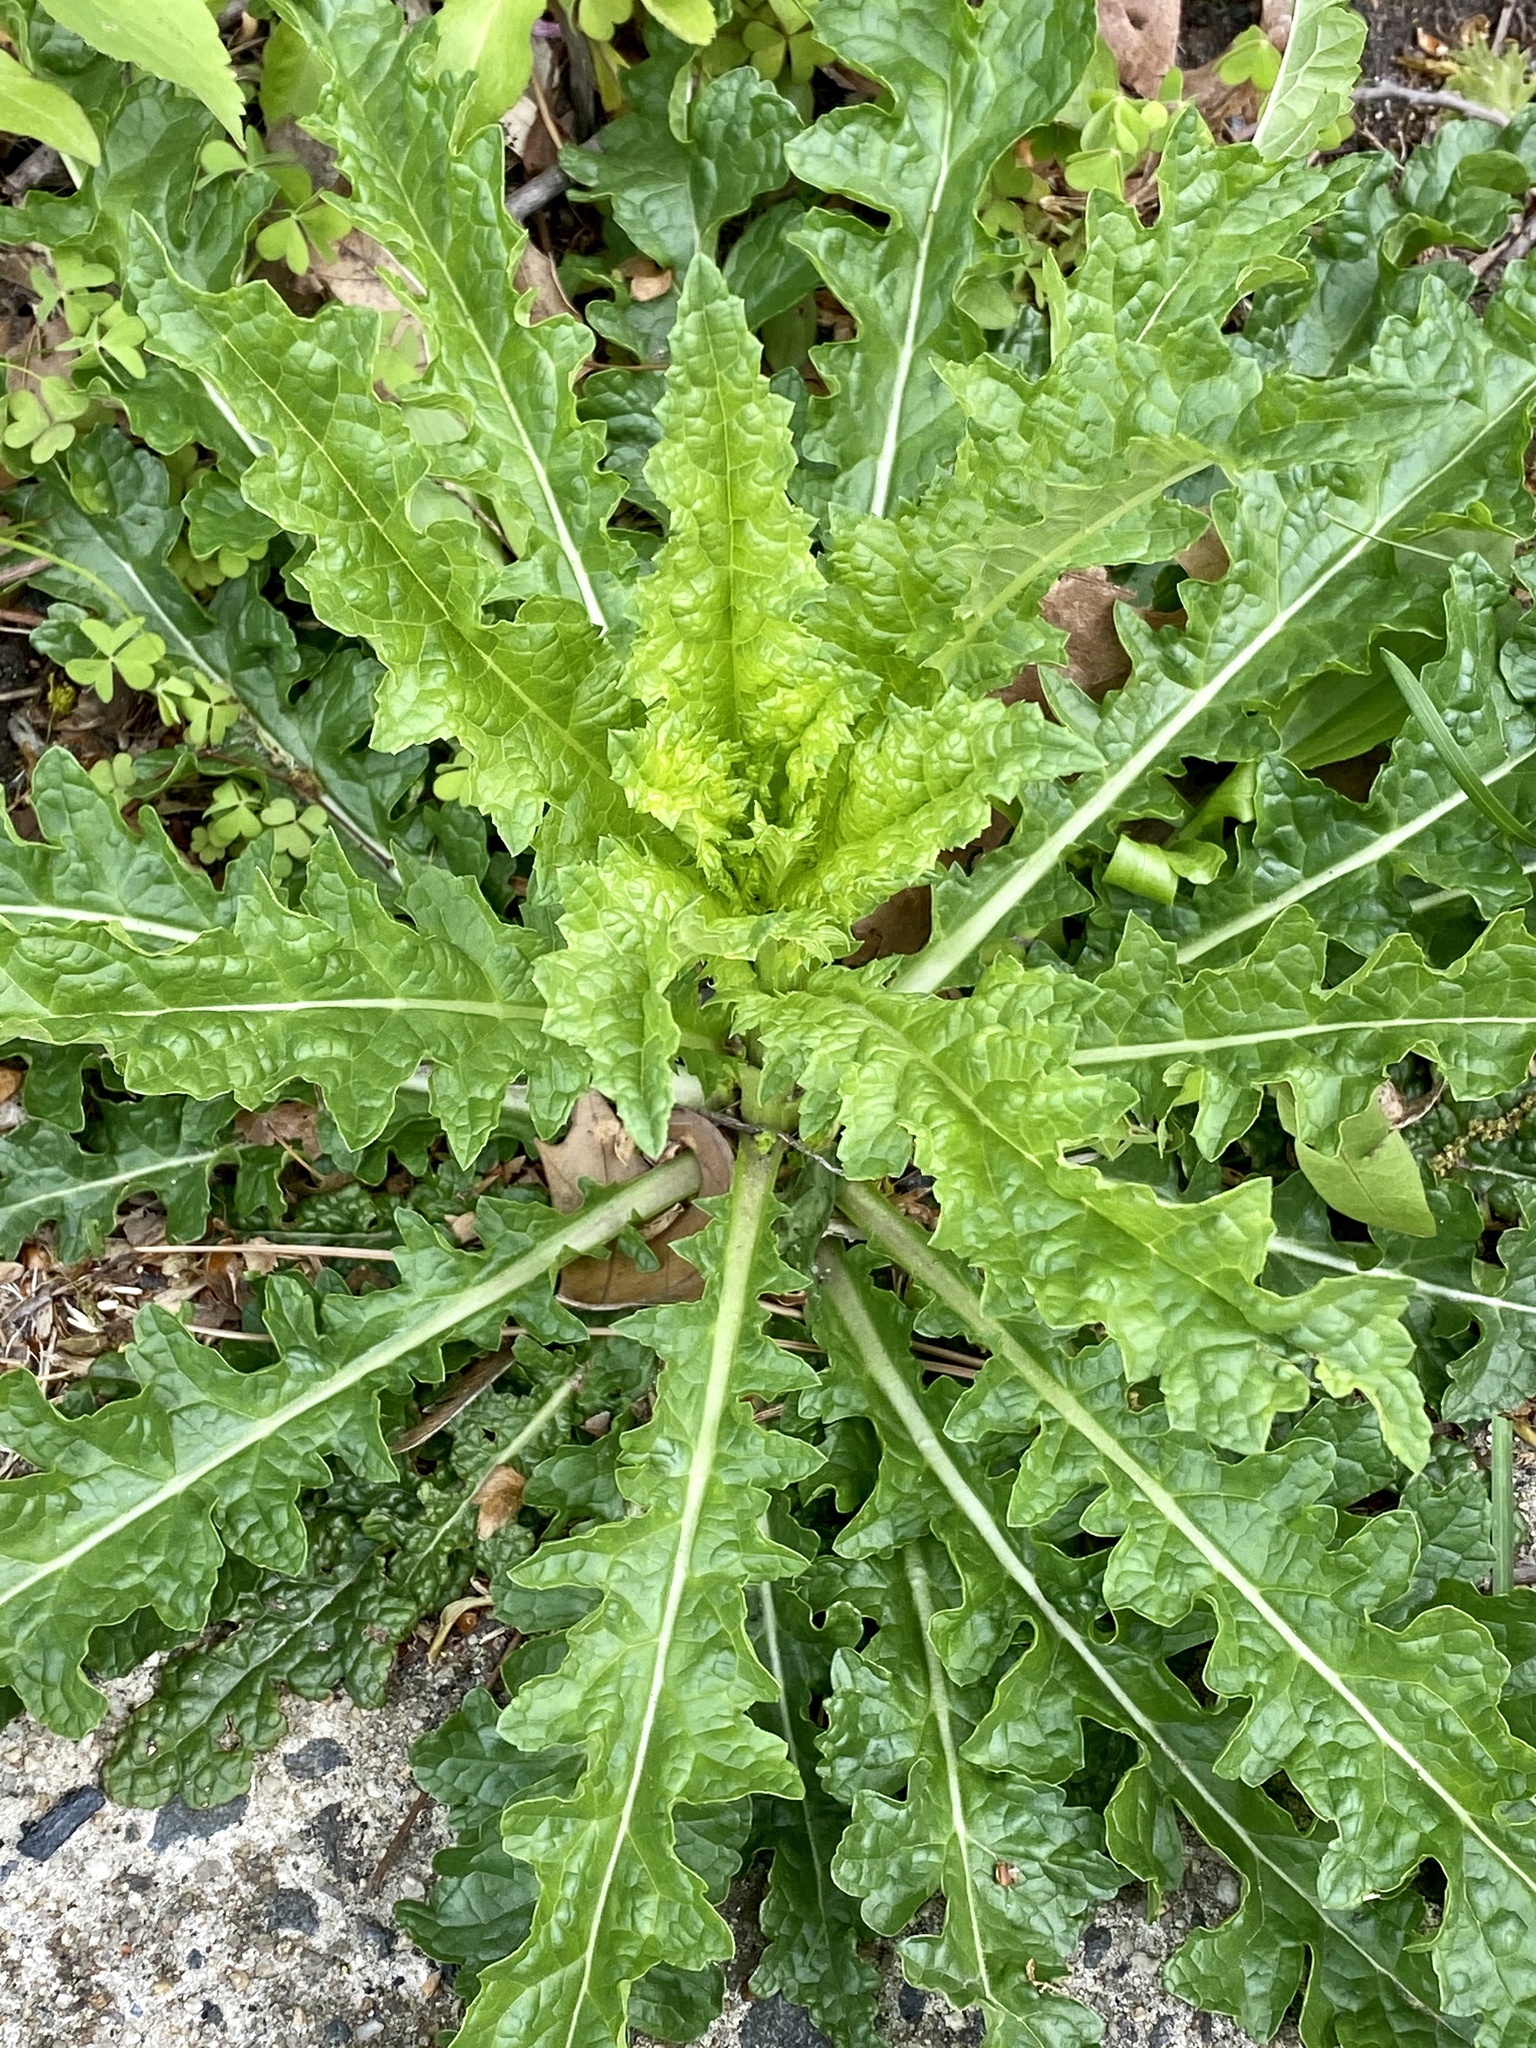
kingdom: Plantae
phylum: Tracheophyta
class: Magnoliopsida
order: Lamiales
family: Scrophulariaceae
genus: Verbascum
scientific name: Verbascum blattaria
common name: Moth mullein
